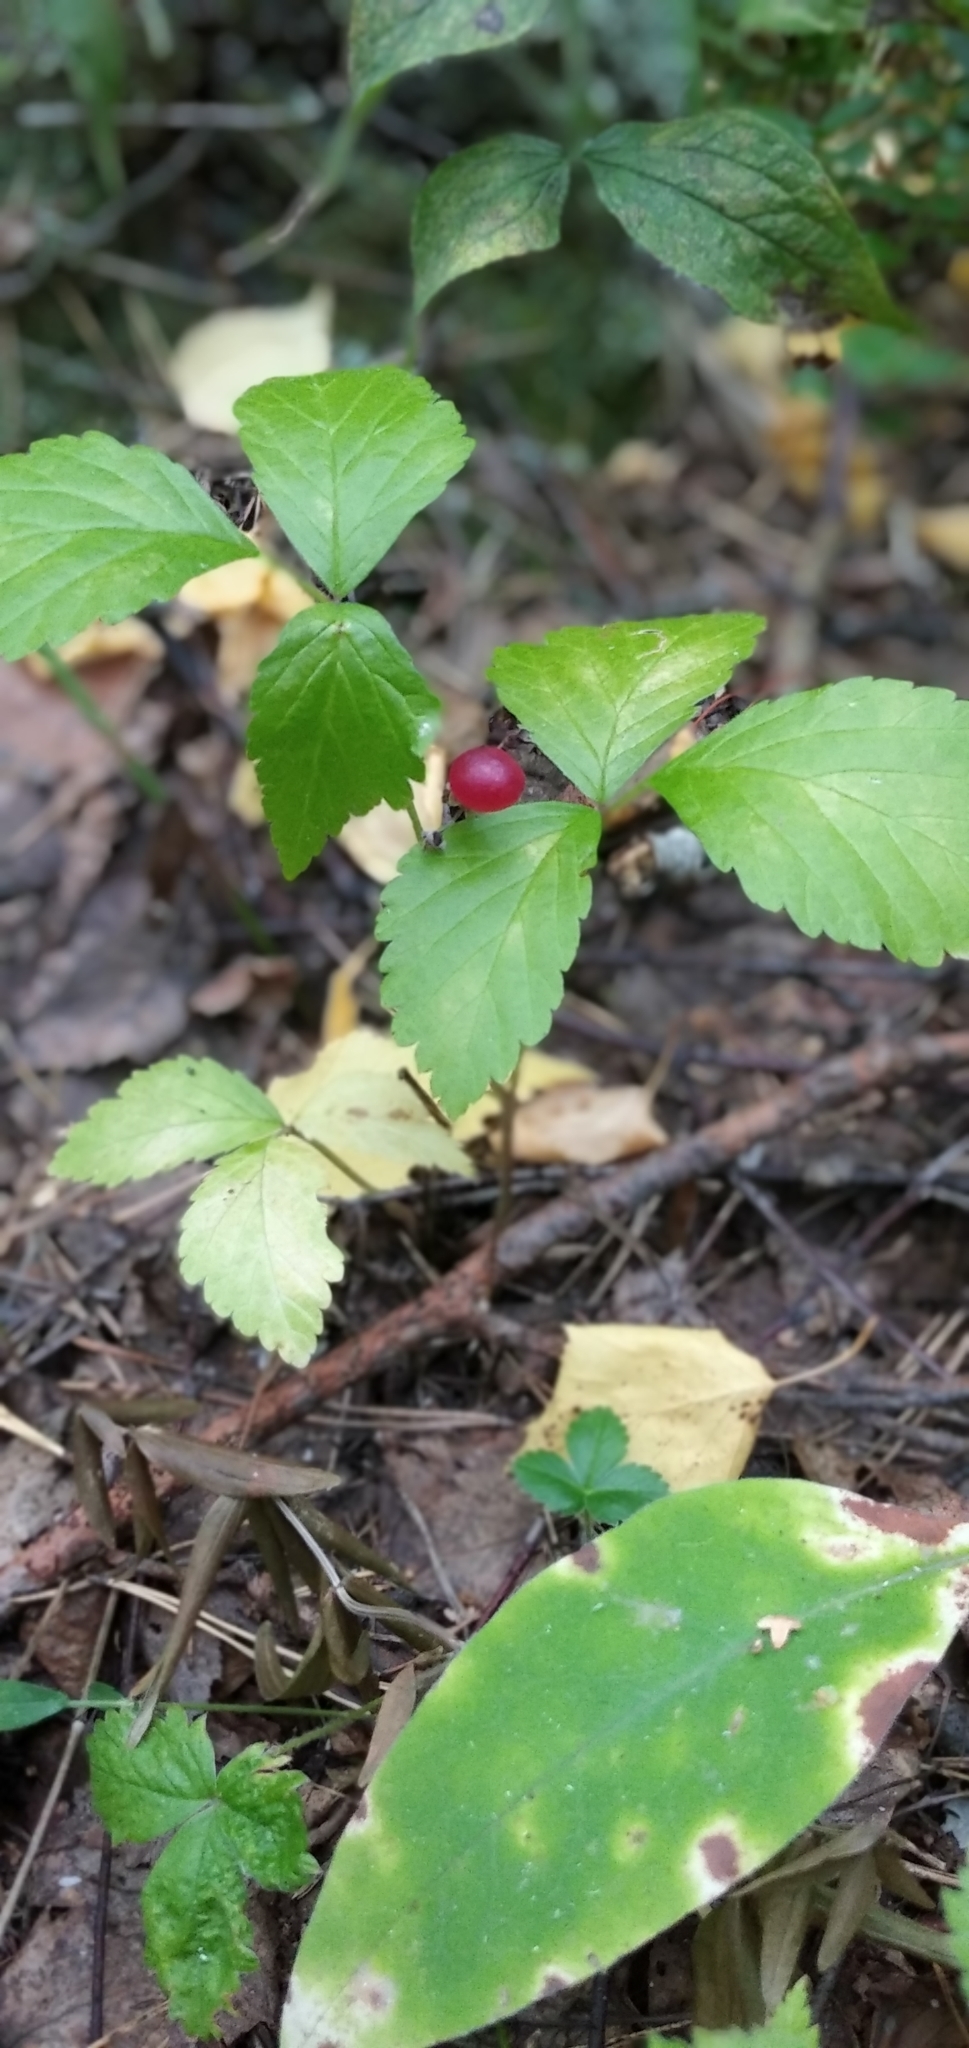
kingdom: Plantae
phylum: Tracheophyta
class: Magnoliopsida
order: Rosales
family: Rosaceae
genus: Rubus
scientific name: Rubus saxatilis
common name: Stone bramble
